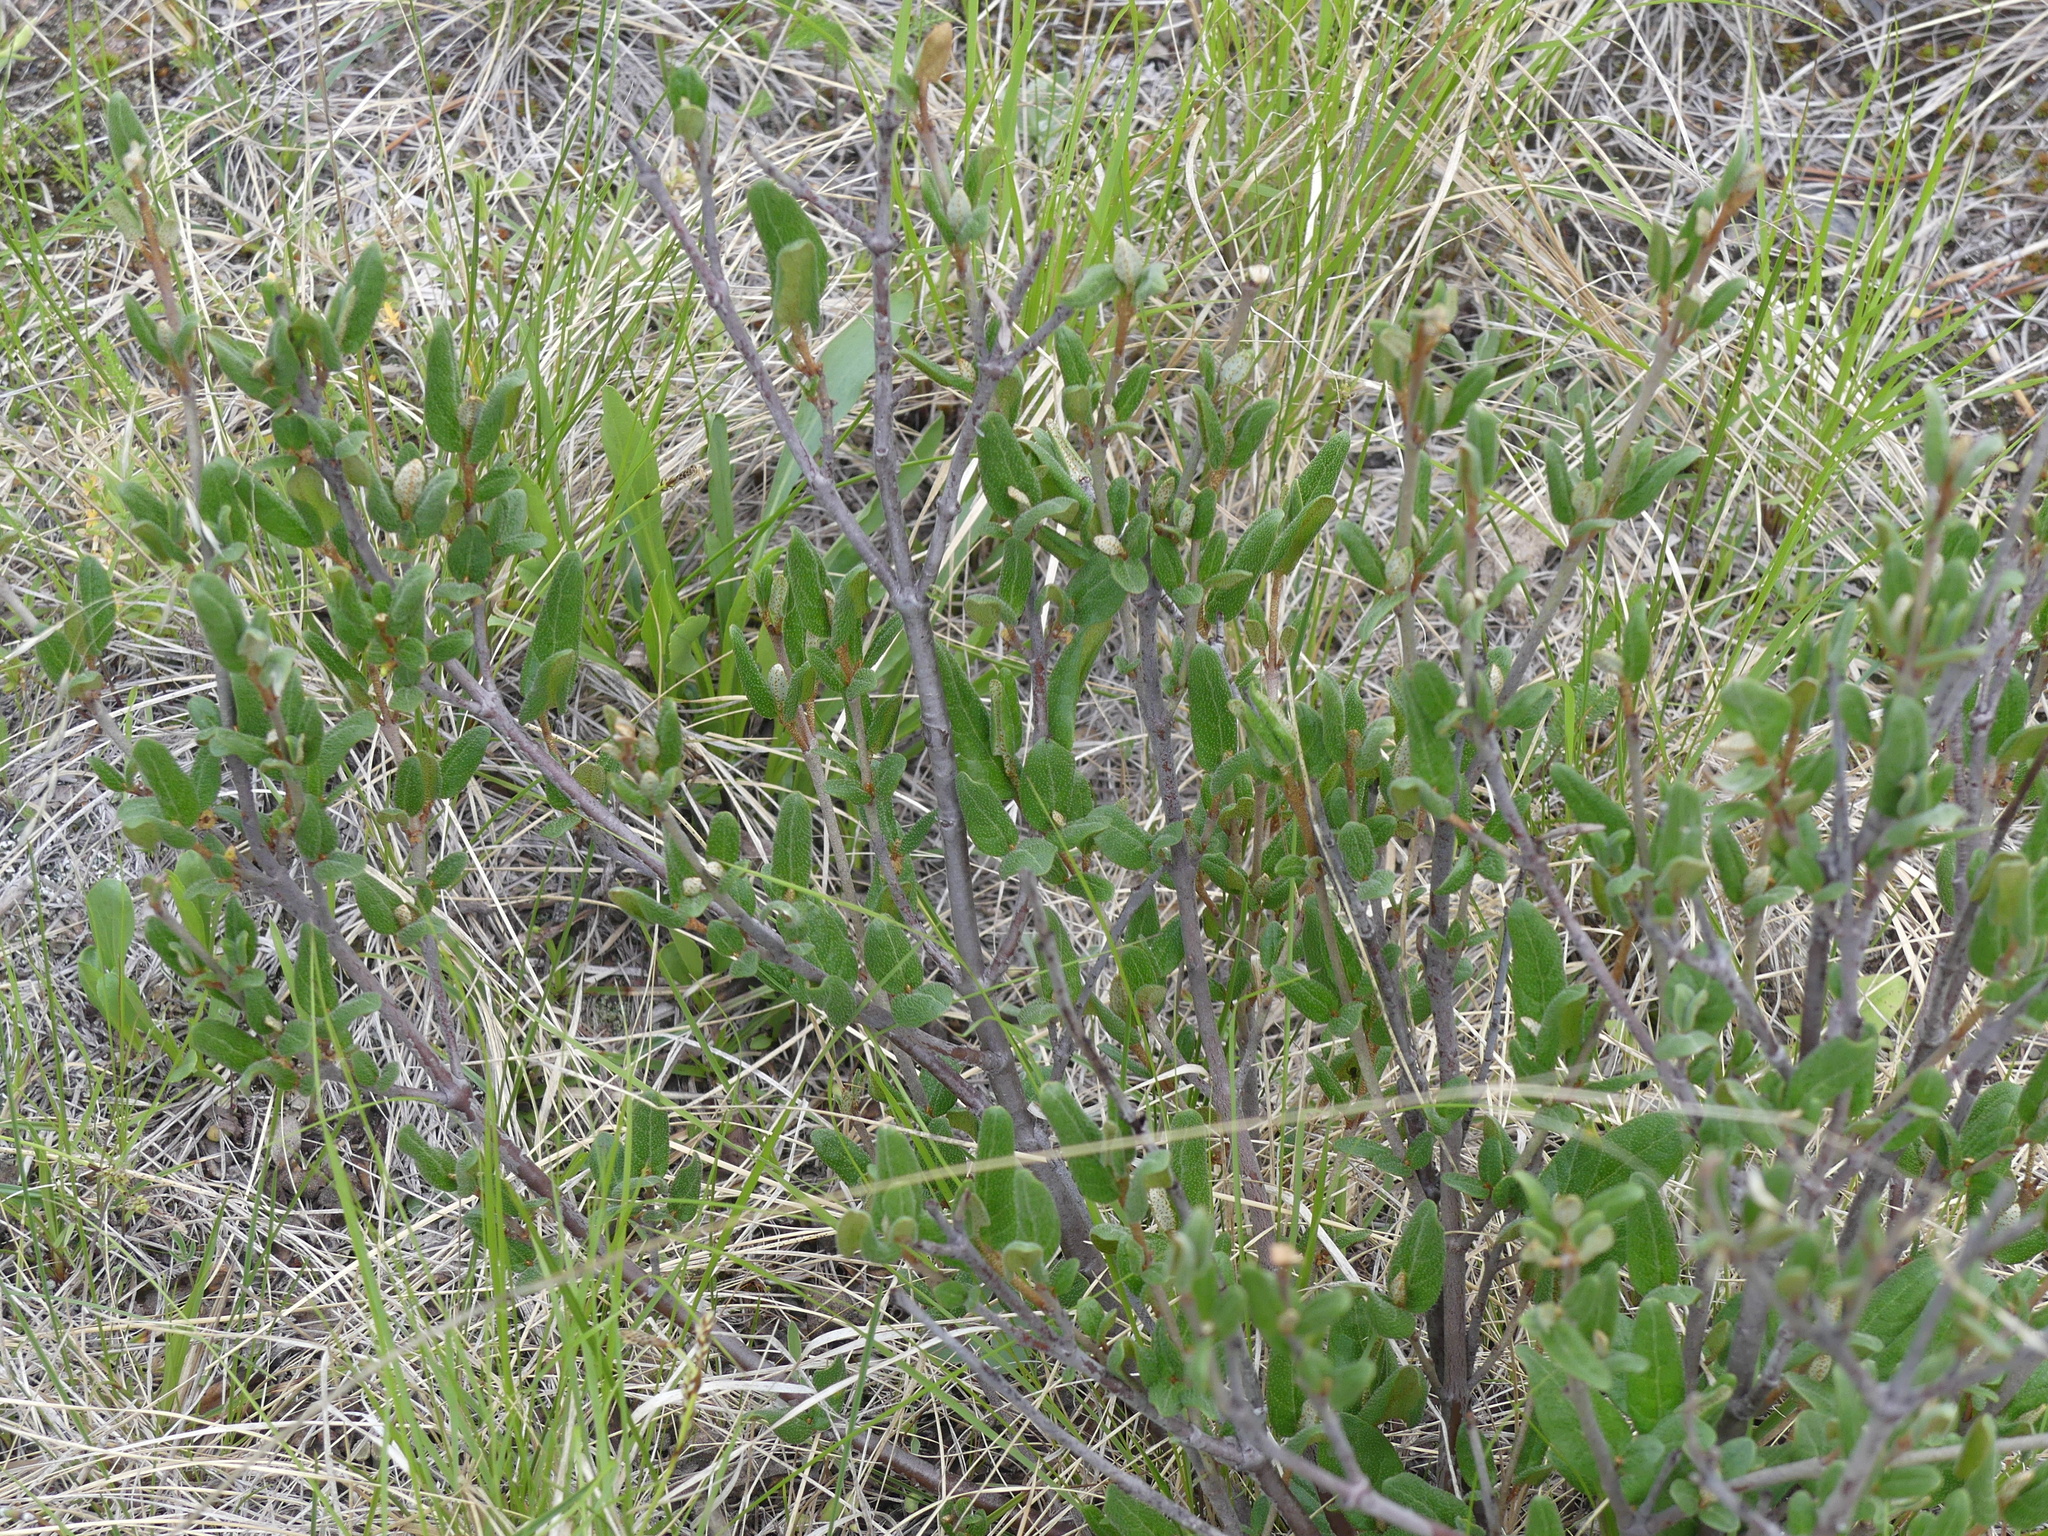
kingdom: Plantae
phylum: Tracheophyta
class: Magnoliopsida
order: Rosales
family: Elaeagnaceae
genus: Shepherdia
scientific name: Shepherdia canadensis
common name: Soapberry
